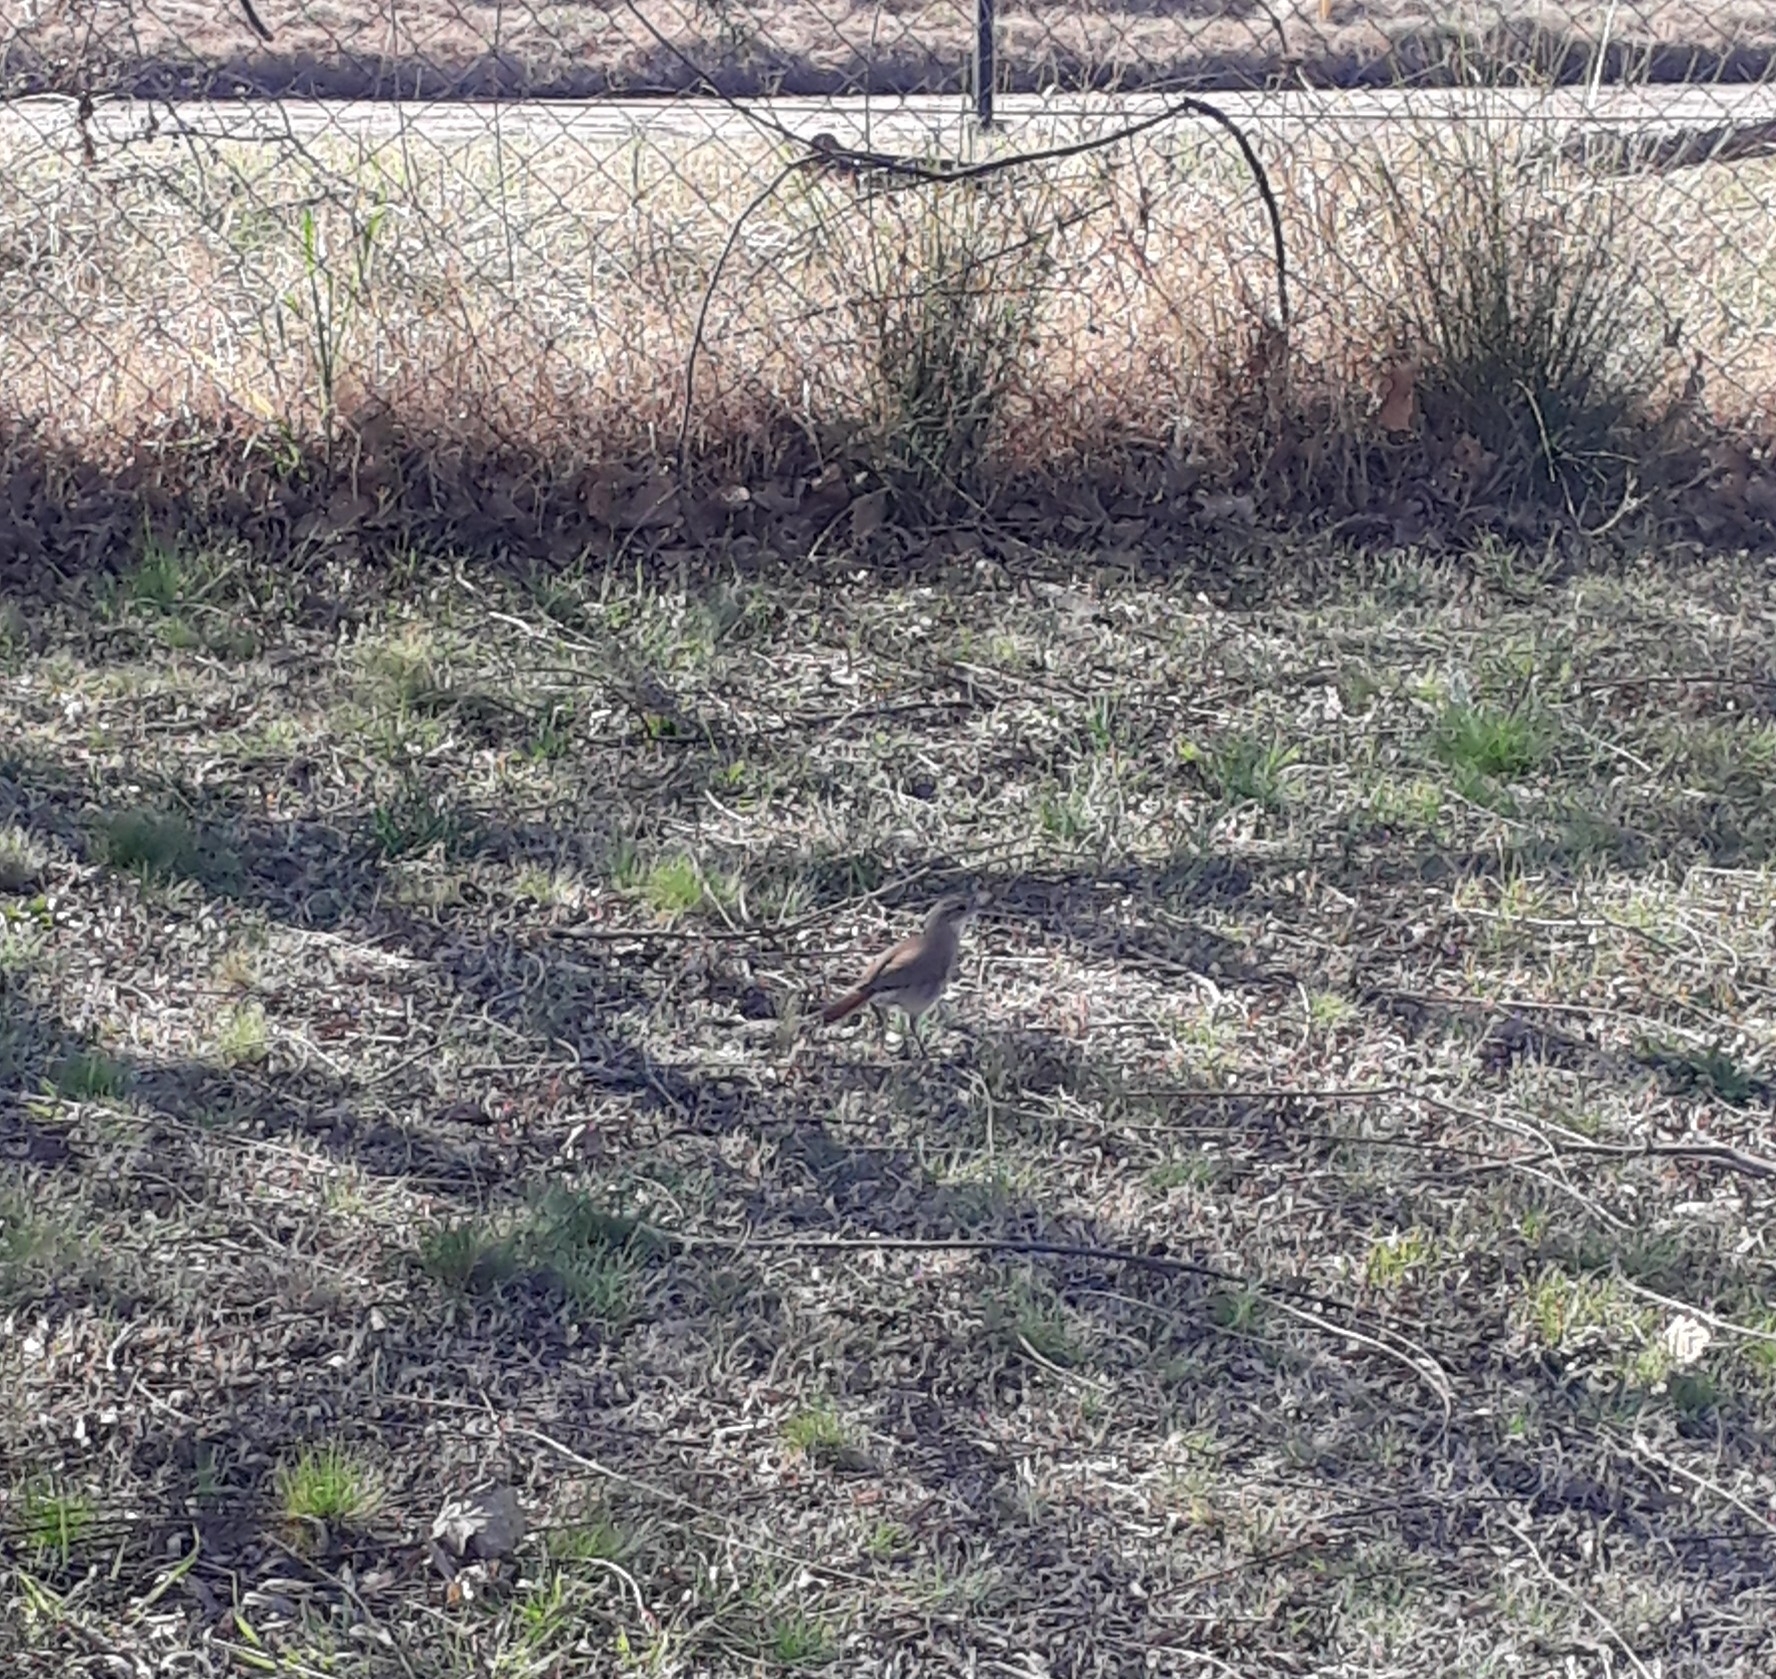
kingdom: Animalia
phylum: Chordata
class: Aves
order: Passeriformes
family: Furnariidae
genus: Furnarius
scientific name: Furnarius rufus
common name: Rufous hornero
